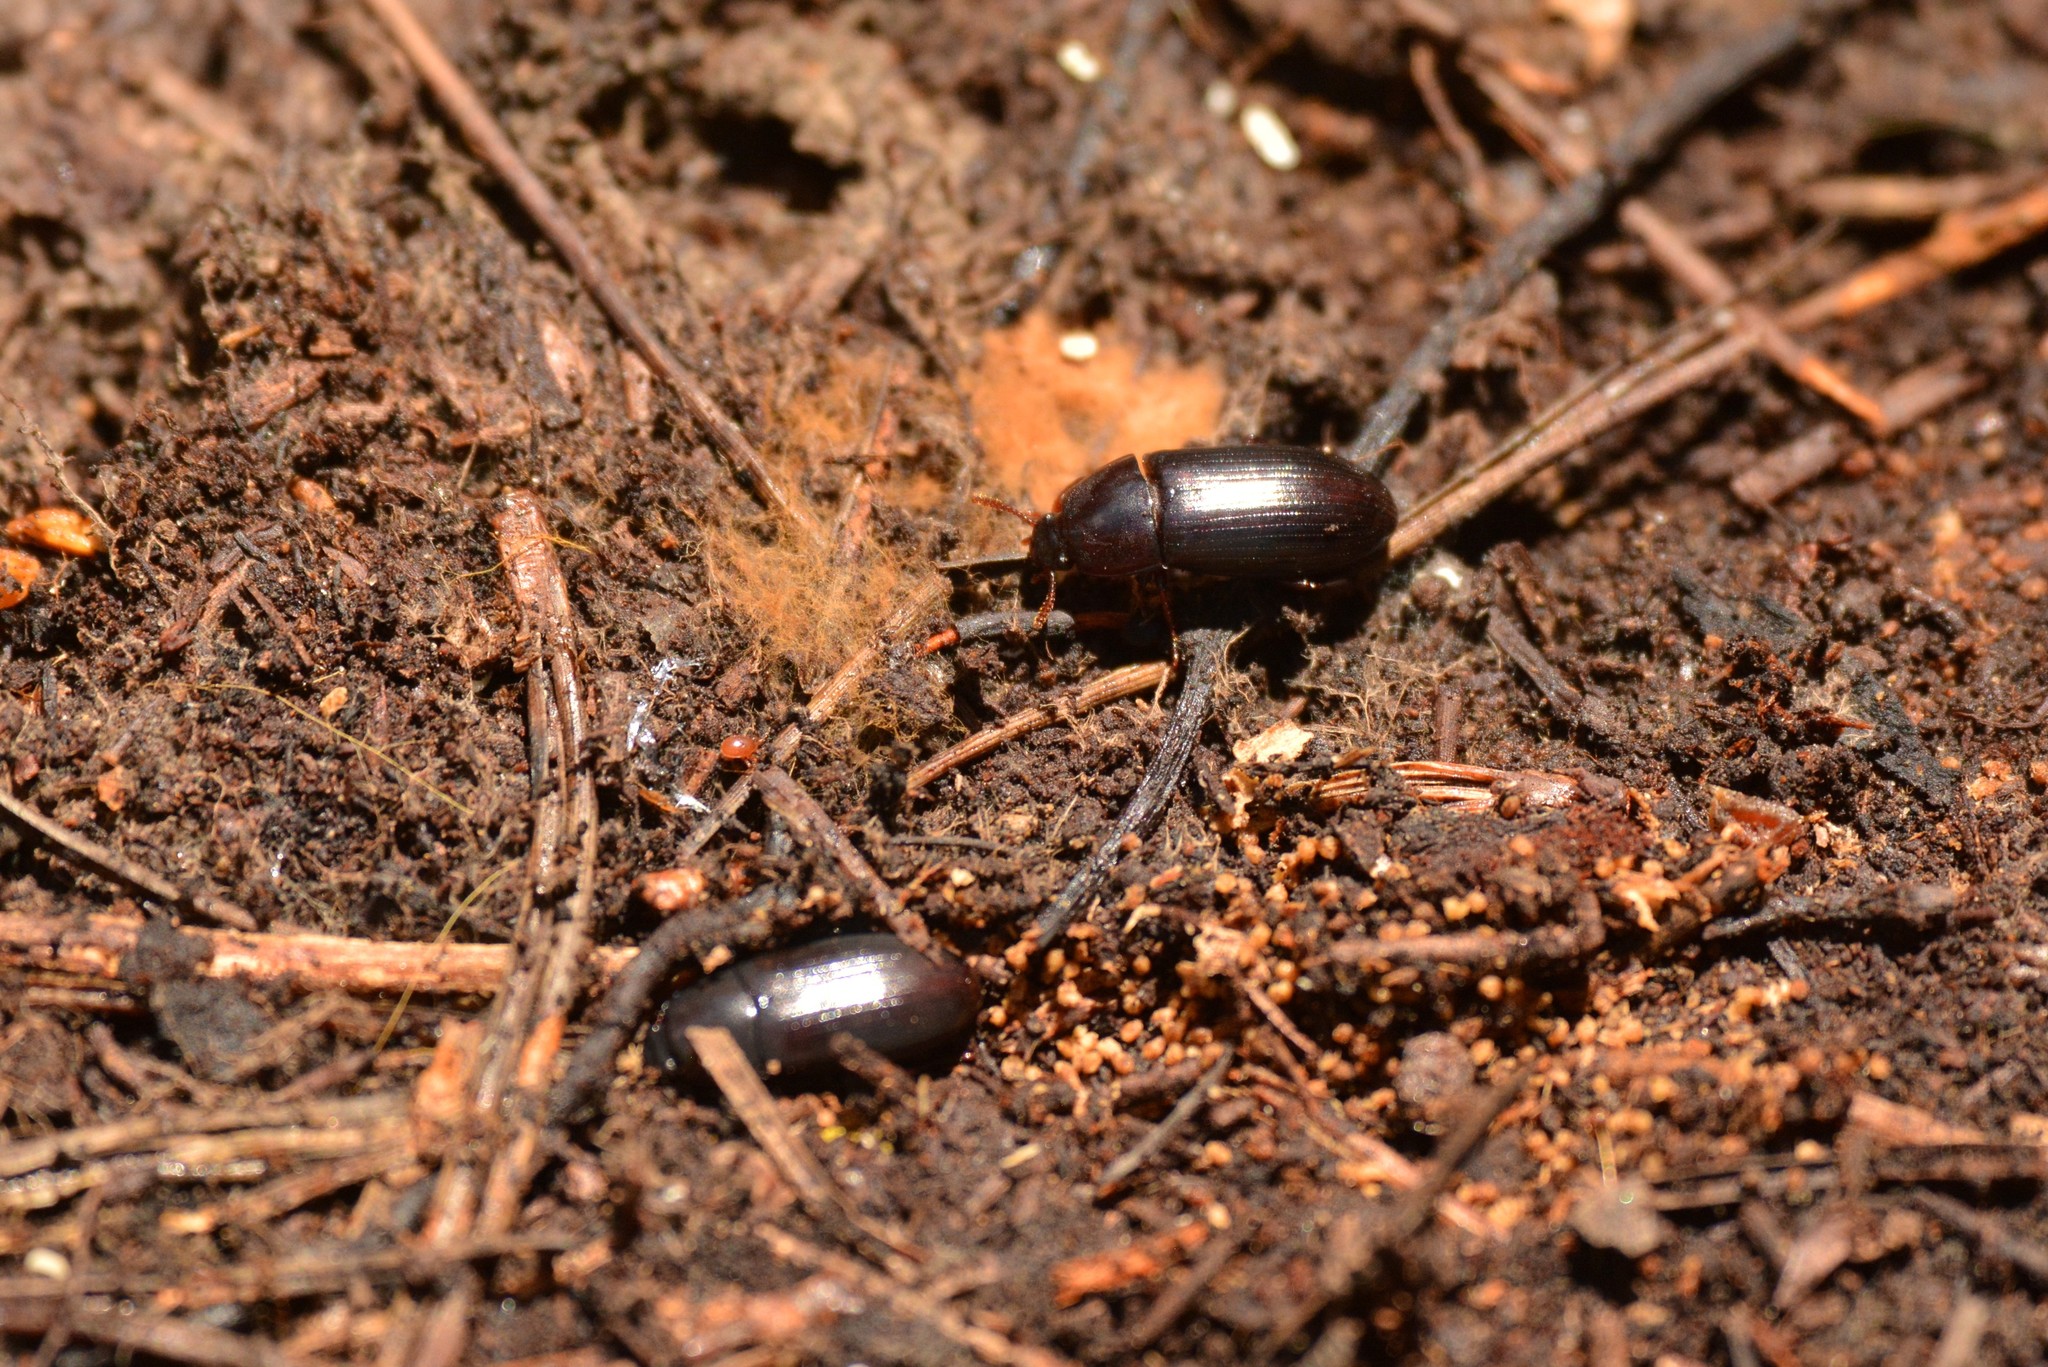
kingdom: Animalia
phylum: Arthropoda
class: Insecta
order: Coleoptera
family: Tenebrionidae
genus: Uloma
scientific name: Uloma tenebrionoides
